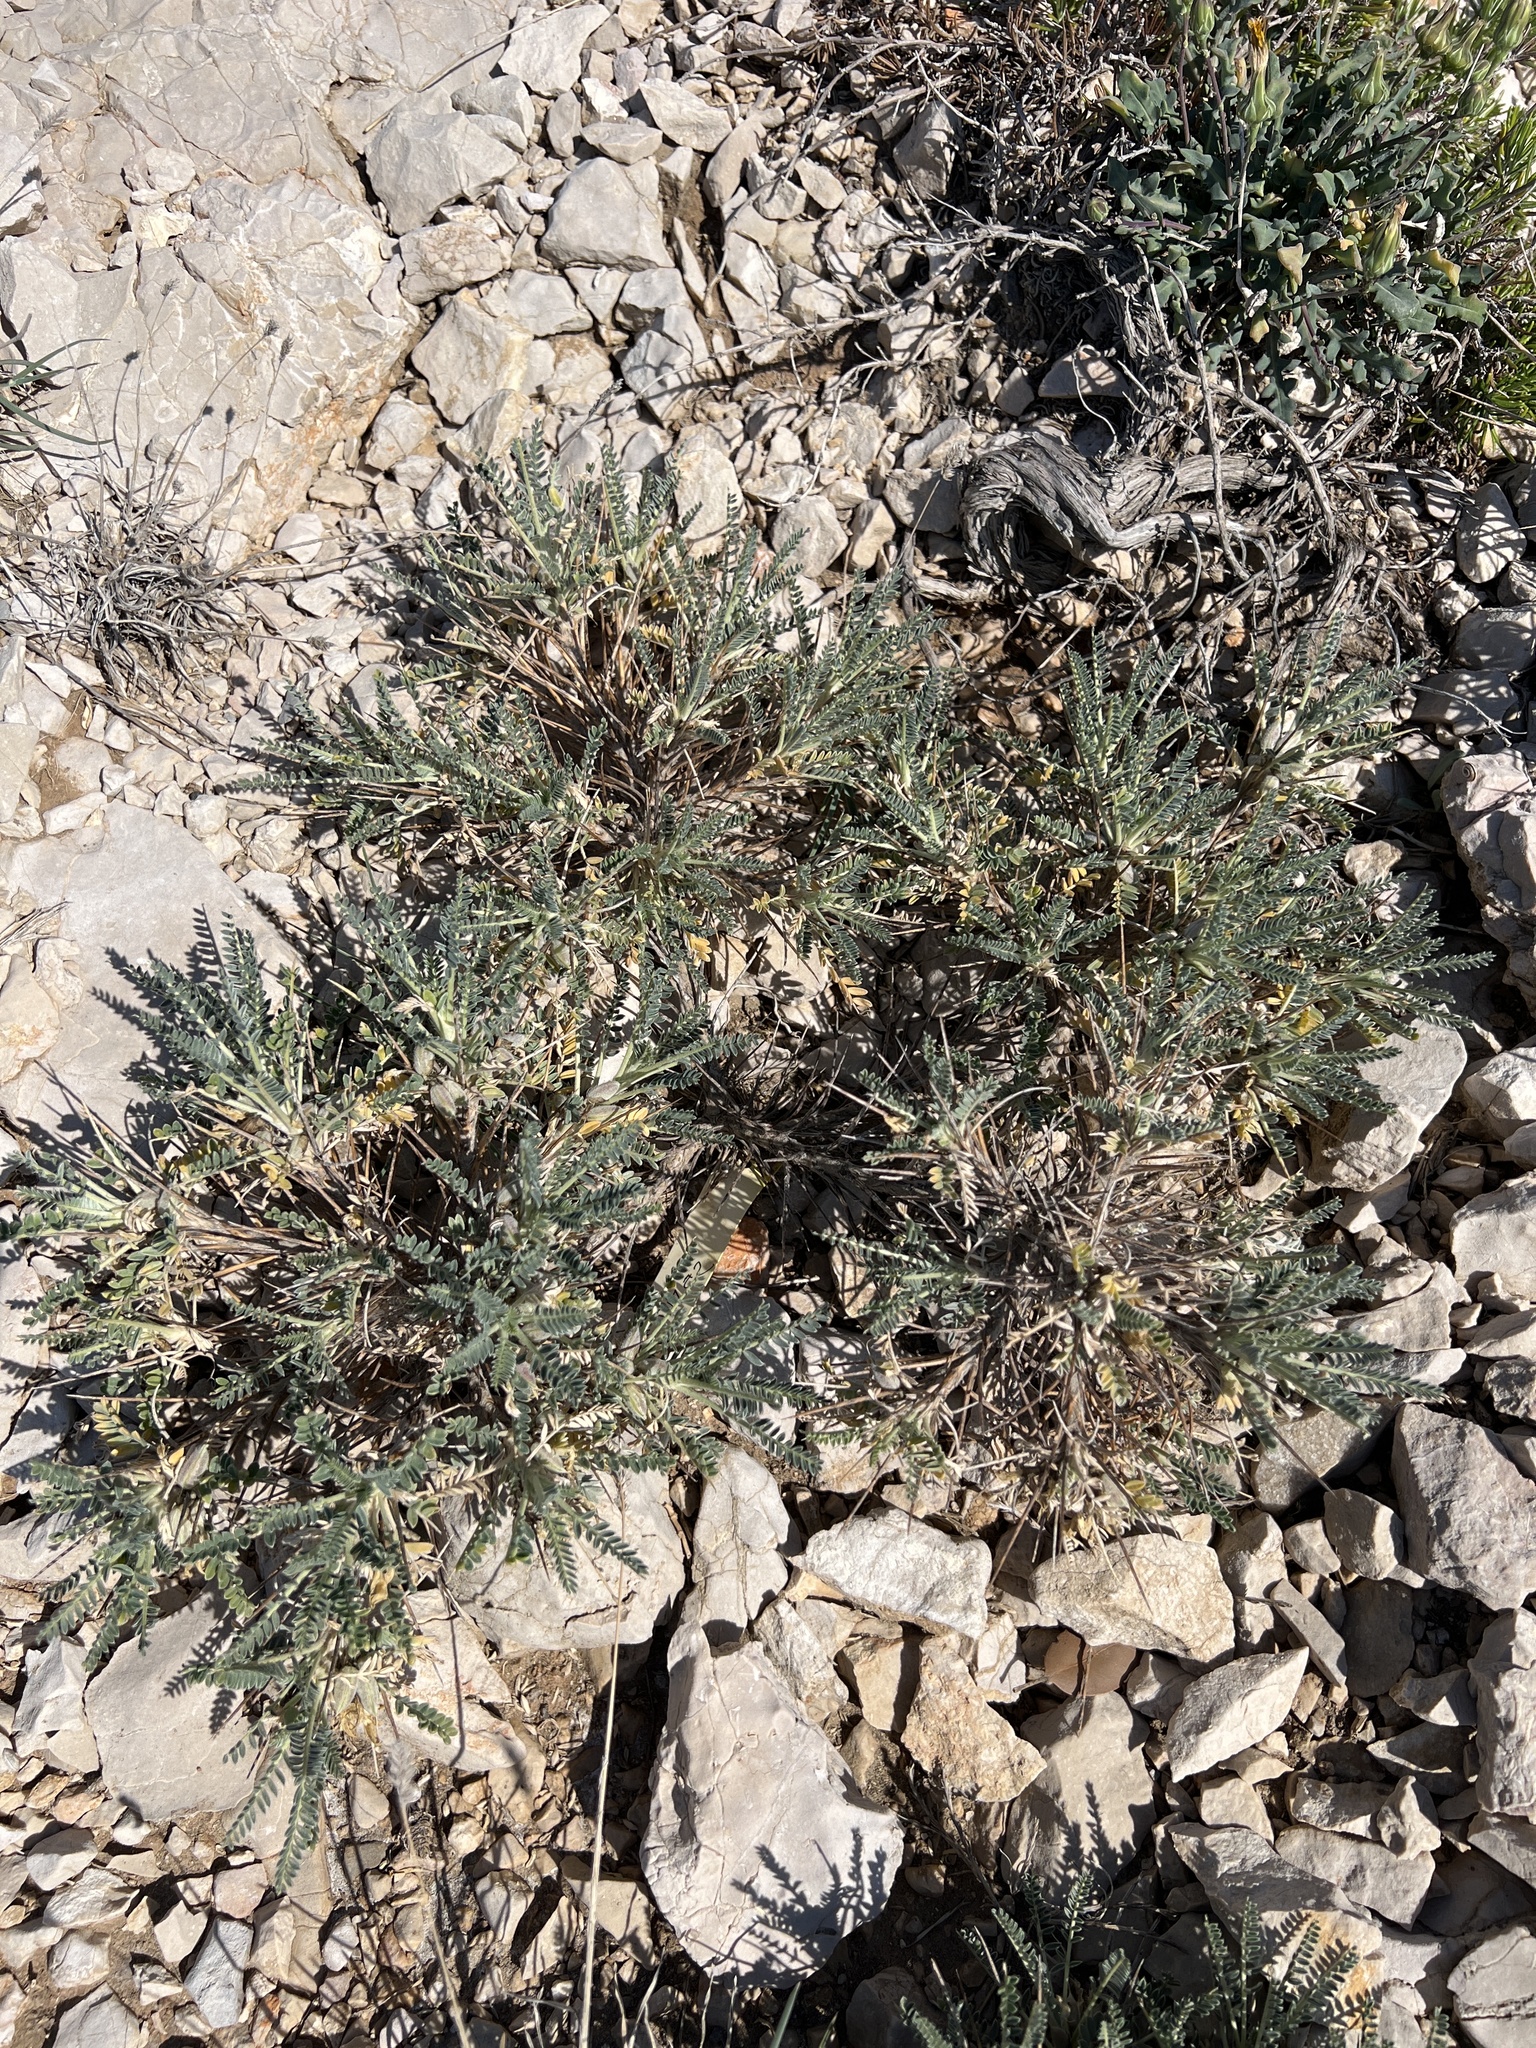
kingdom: Plantae
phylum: Tracheophyta
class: Magnoliopsida
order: Fabales
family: Fabaceae
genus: Astragalus
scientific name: Astragalus tragacantha
